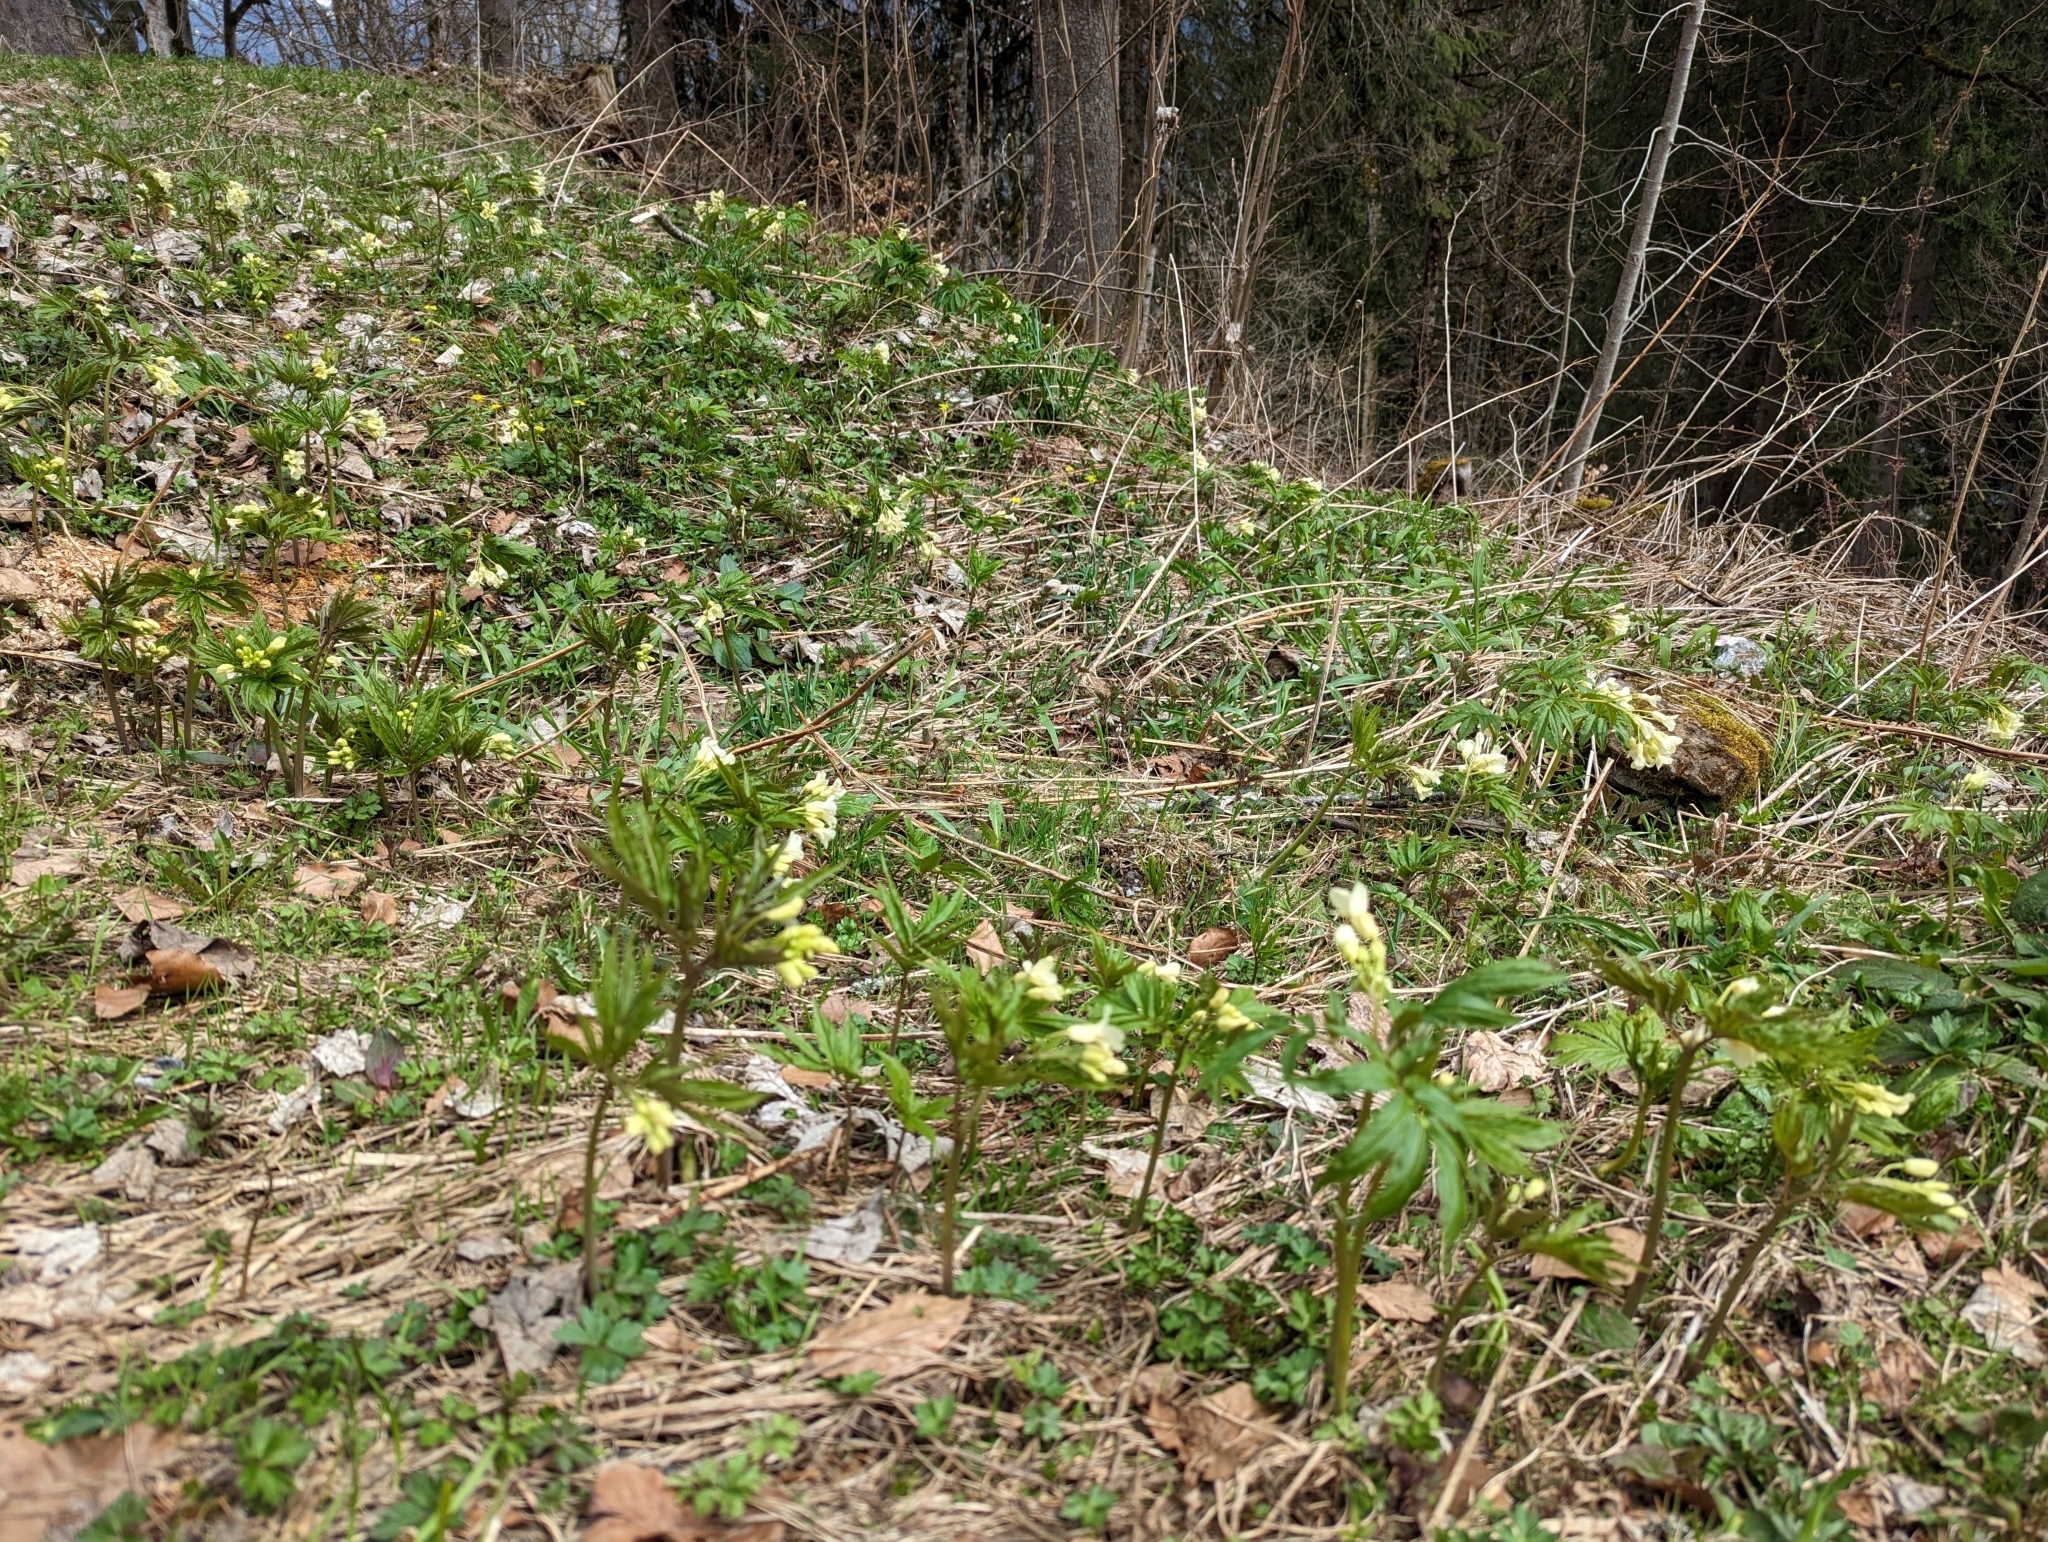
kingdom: Plantae
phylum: Tracheophyta
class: Magnoliopsida
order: Brassicales
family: Brassicaceae
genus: Cardamine
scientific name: Cardamine kitaibelii
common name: Kitaibel's bitter-cress
